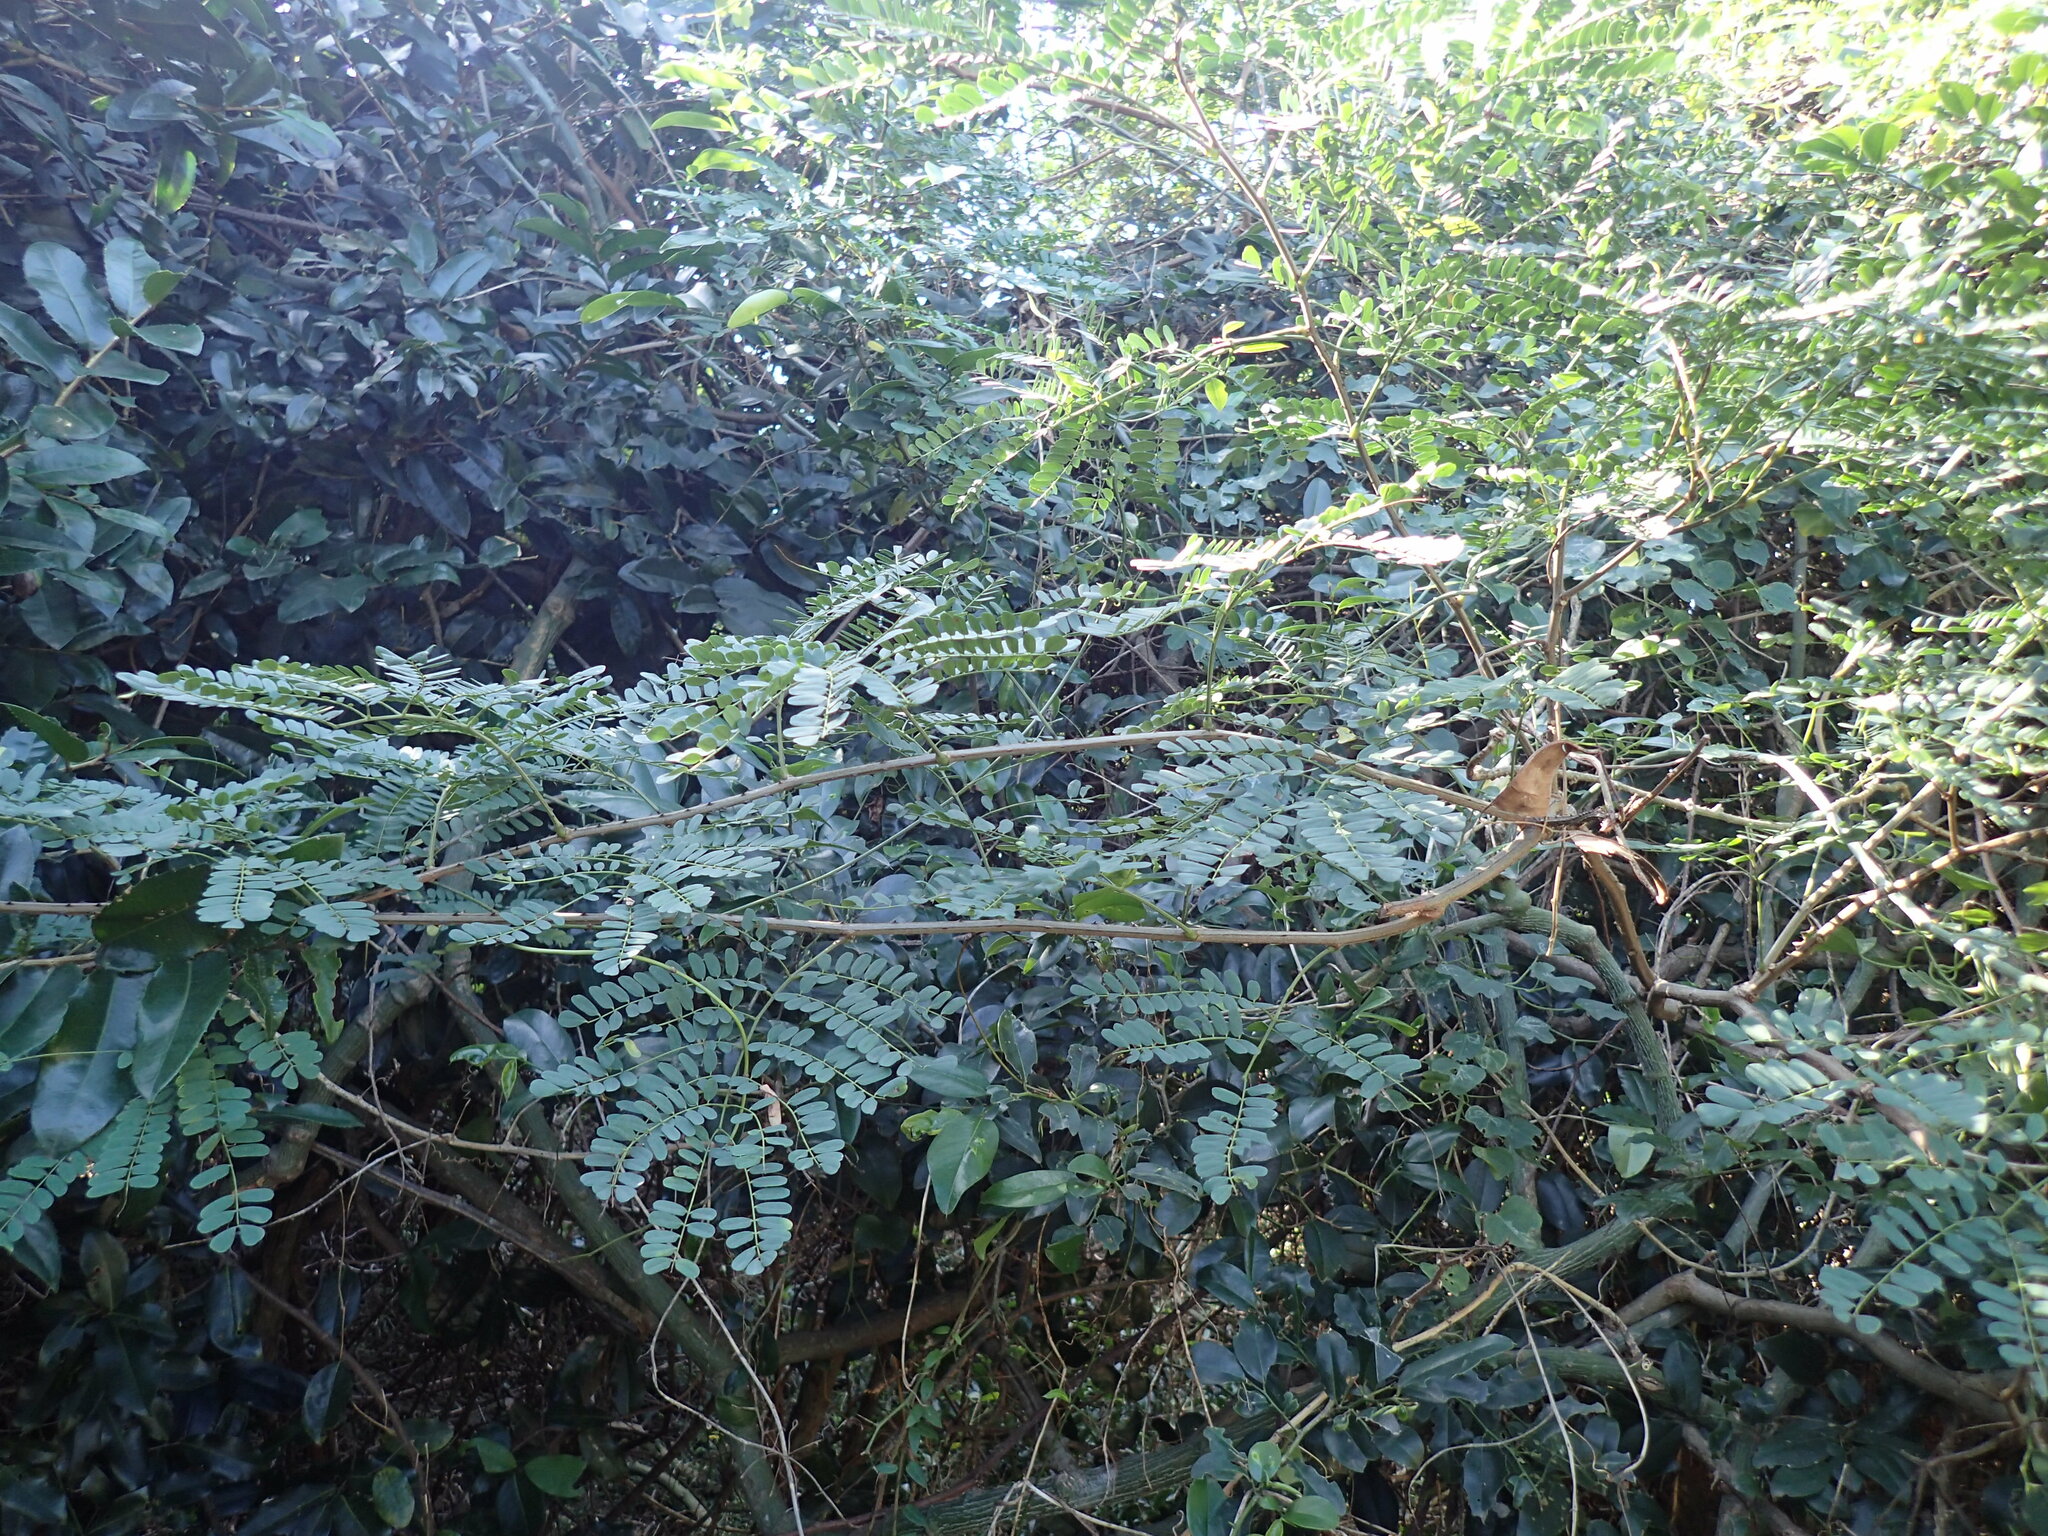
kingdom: Plantae
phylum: Tracheophyta
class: Magnoliopsida
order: Fabales
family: Fabaceae
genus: Adenopodia
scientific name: Adenopodia spicata
